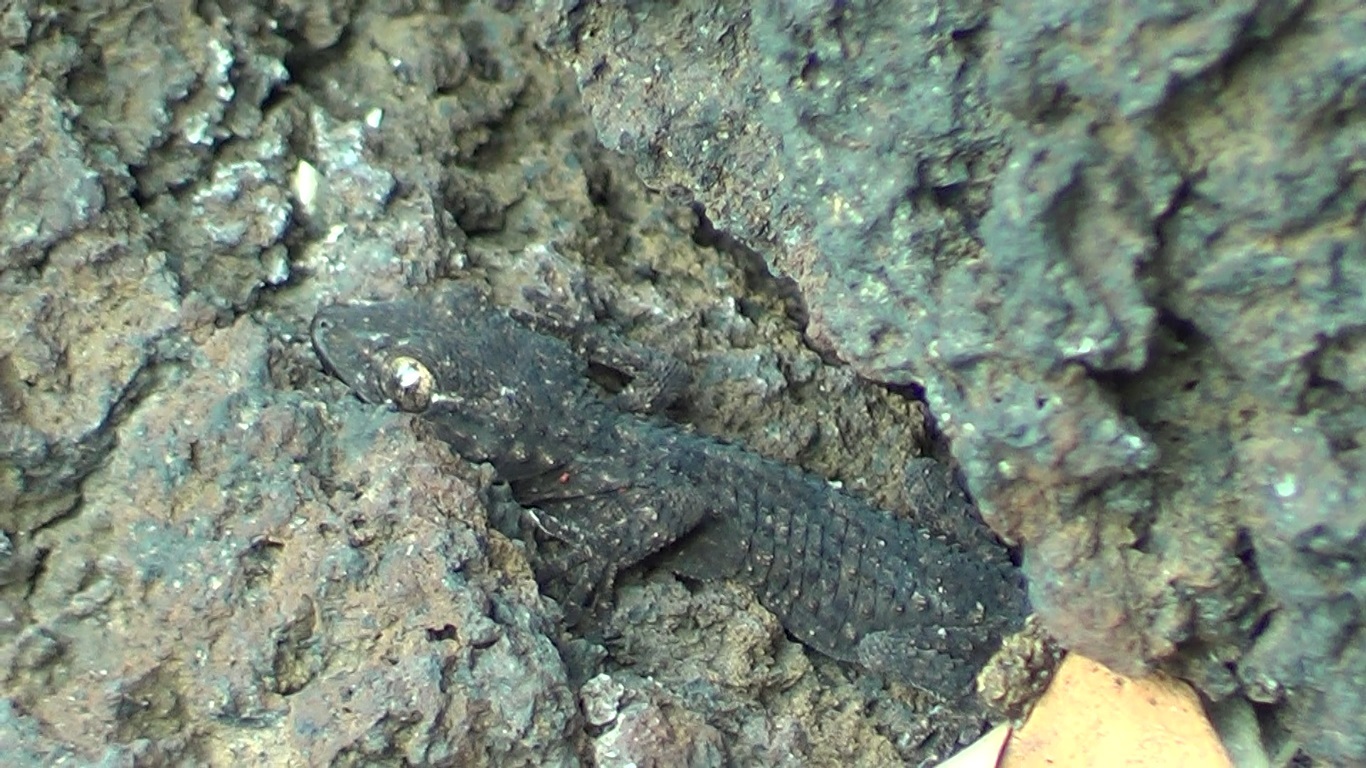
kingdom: Animalia
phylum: Chordata
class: Squamata
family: Phyllodactylidae
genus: Tarentola
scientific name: Tarentola mauritanica
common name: Moorish gecko
